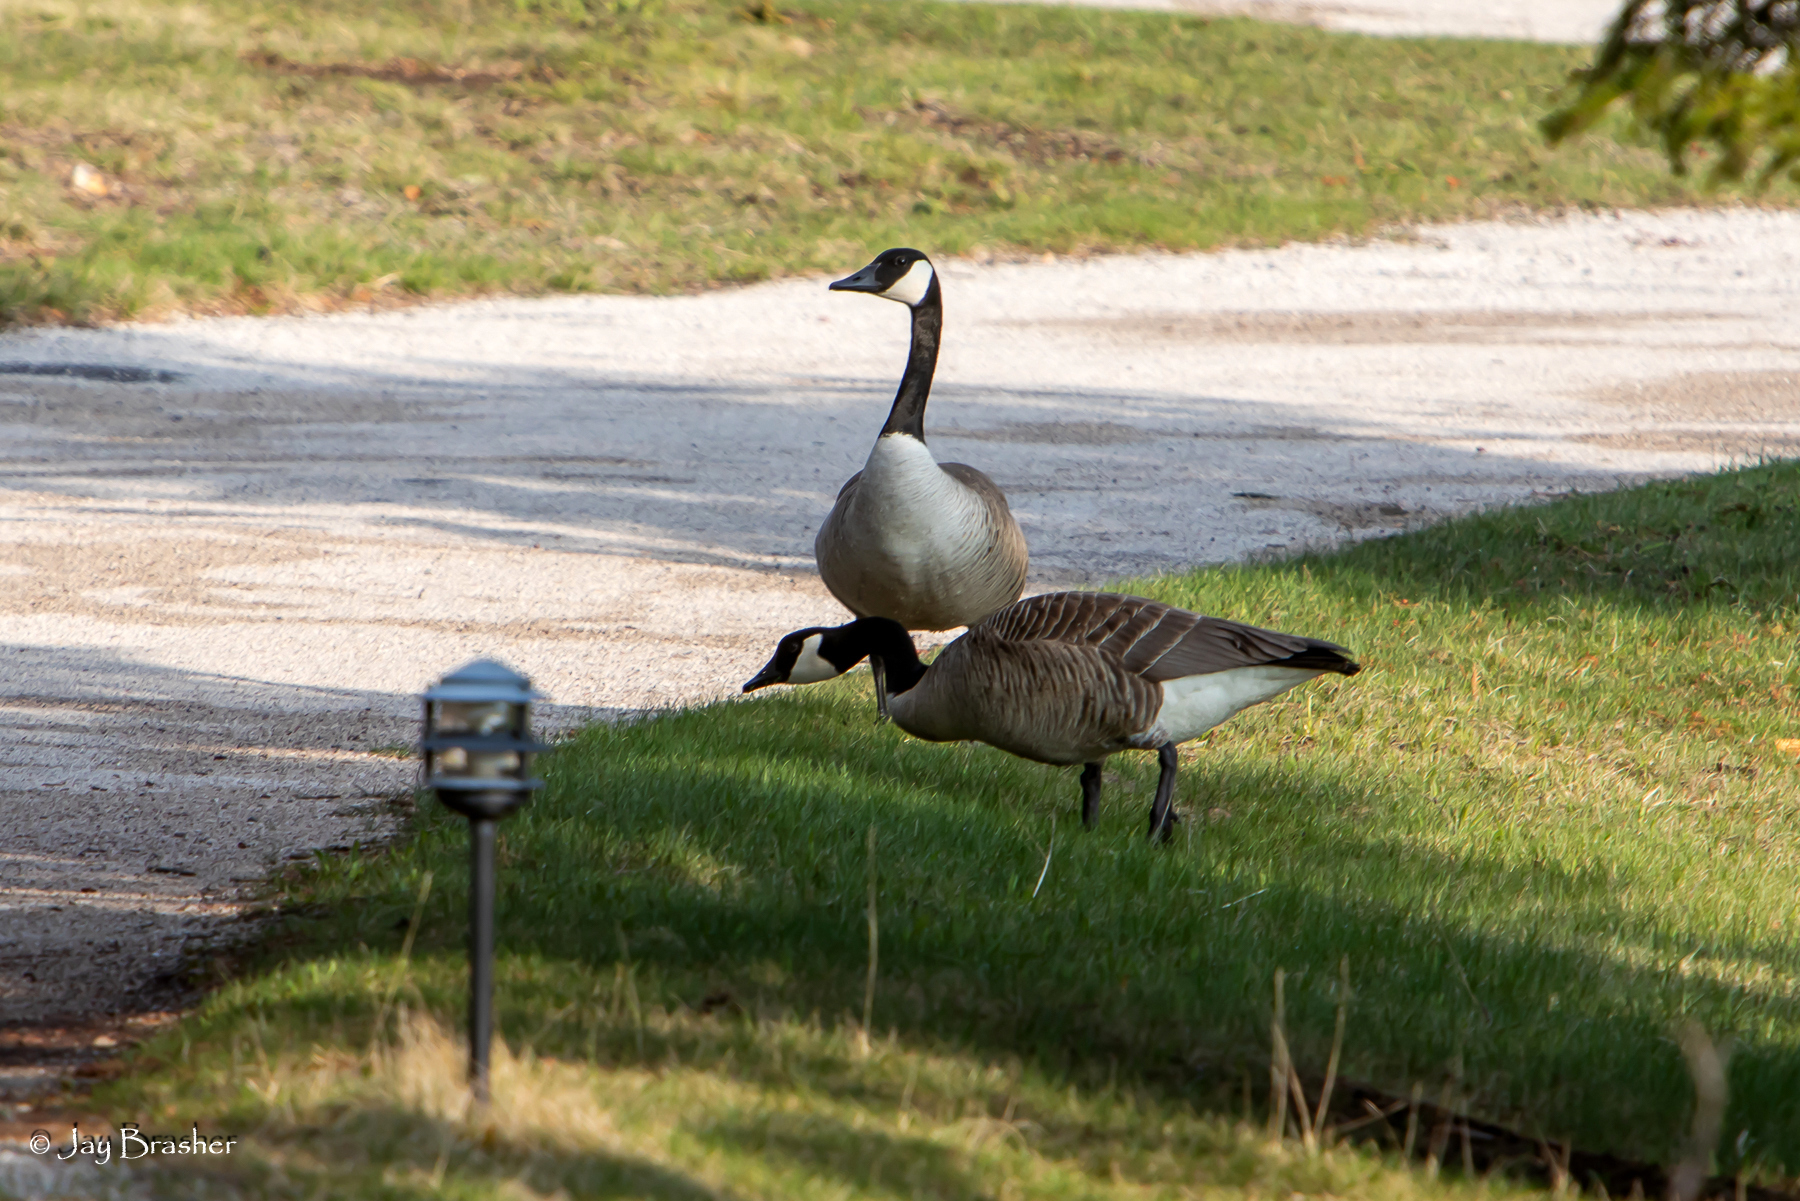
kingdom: Animalia
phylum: Chordata
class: Aves
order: Anseriformes
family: Anatidae
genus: Branta
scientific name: Branta canadensis
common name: Canada goose
